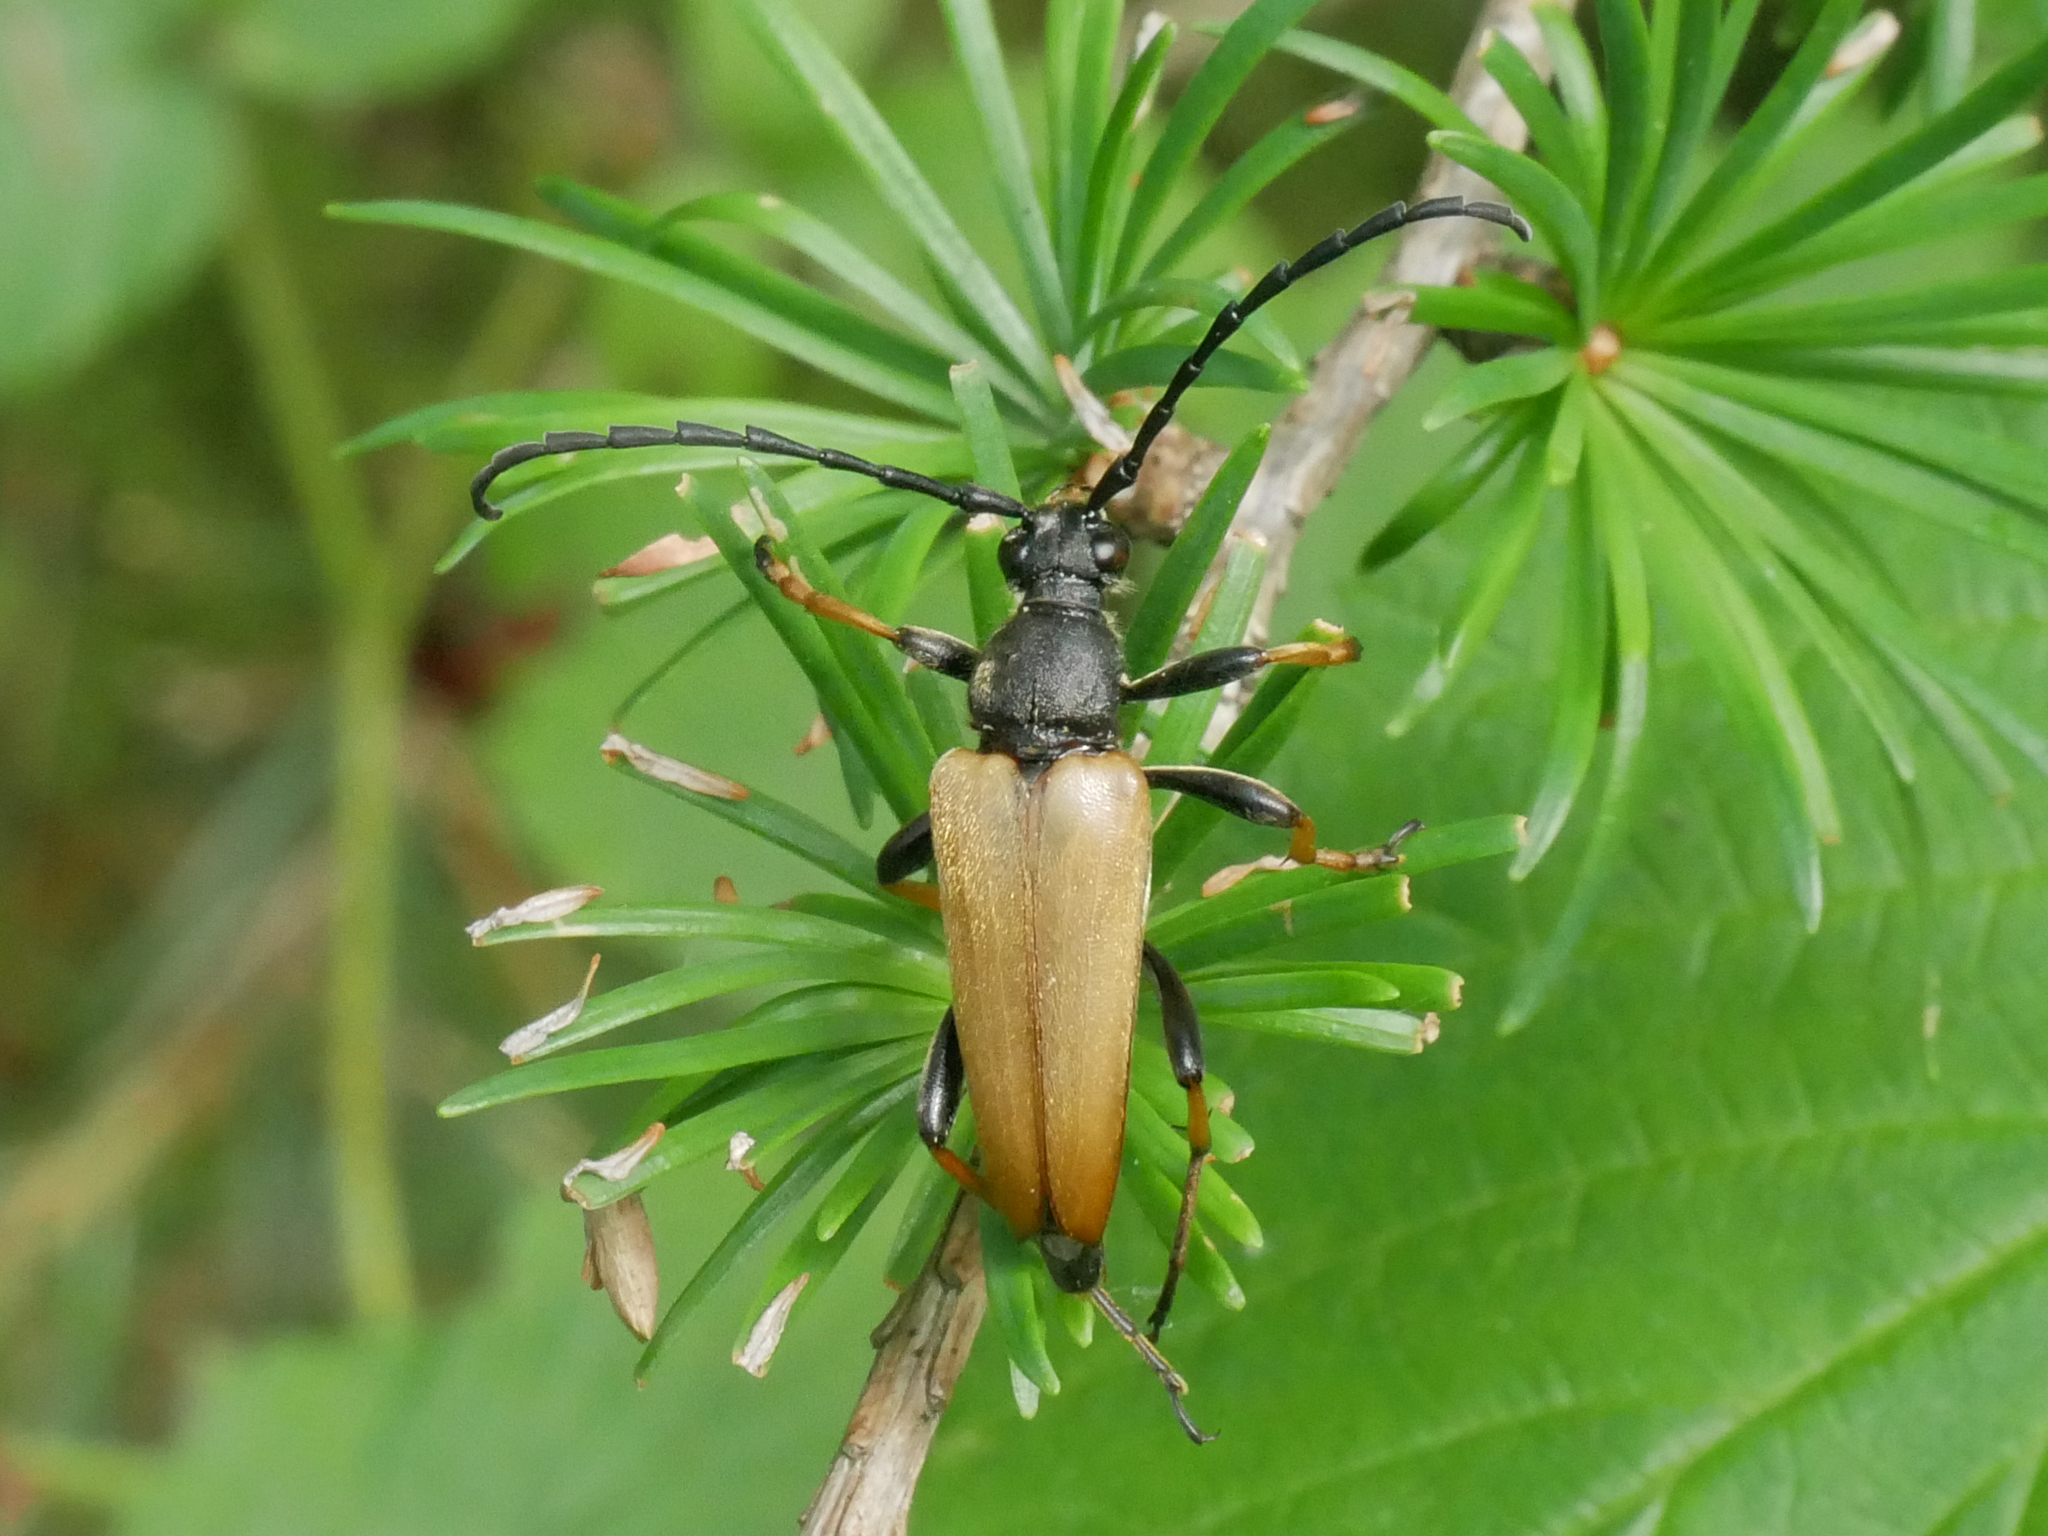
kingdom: Animalia
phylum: Arthropoda
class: Insecta
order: Coleoptera
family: Cerambycidae
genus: Stictoleptura
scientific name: Stictoleptura rubra
